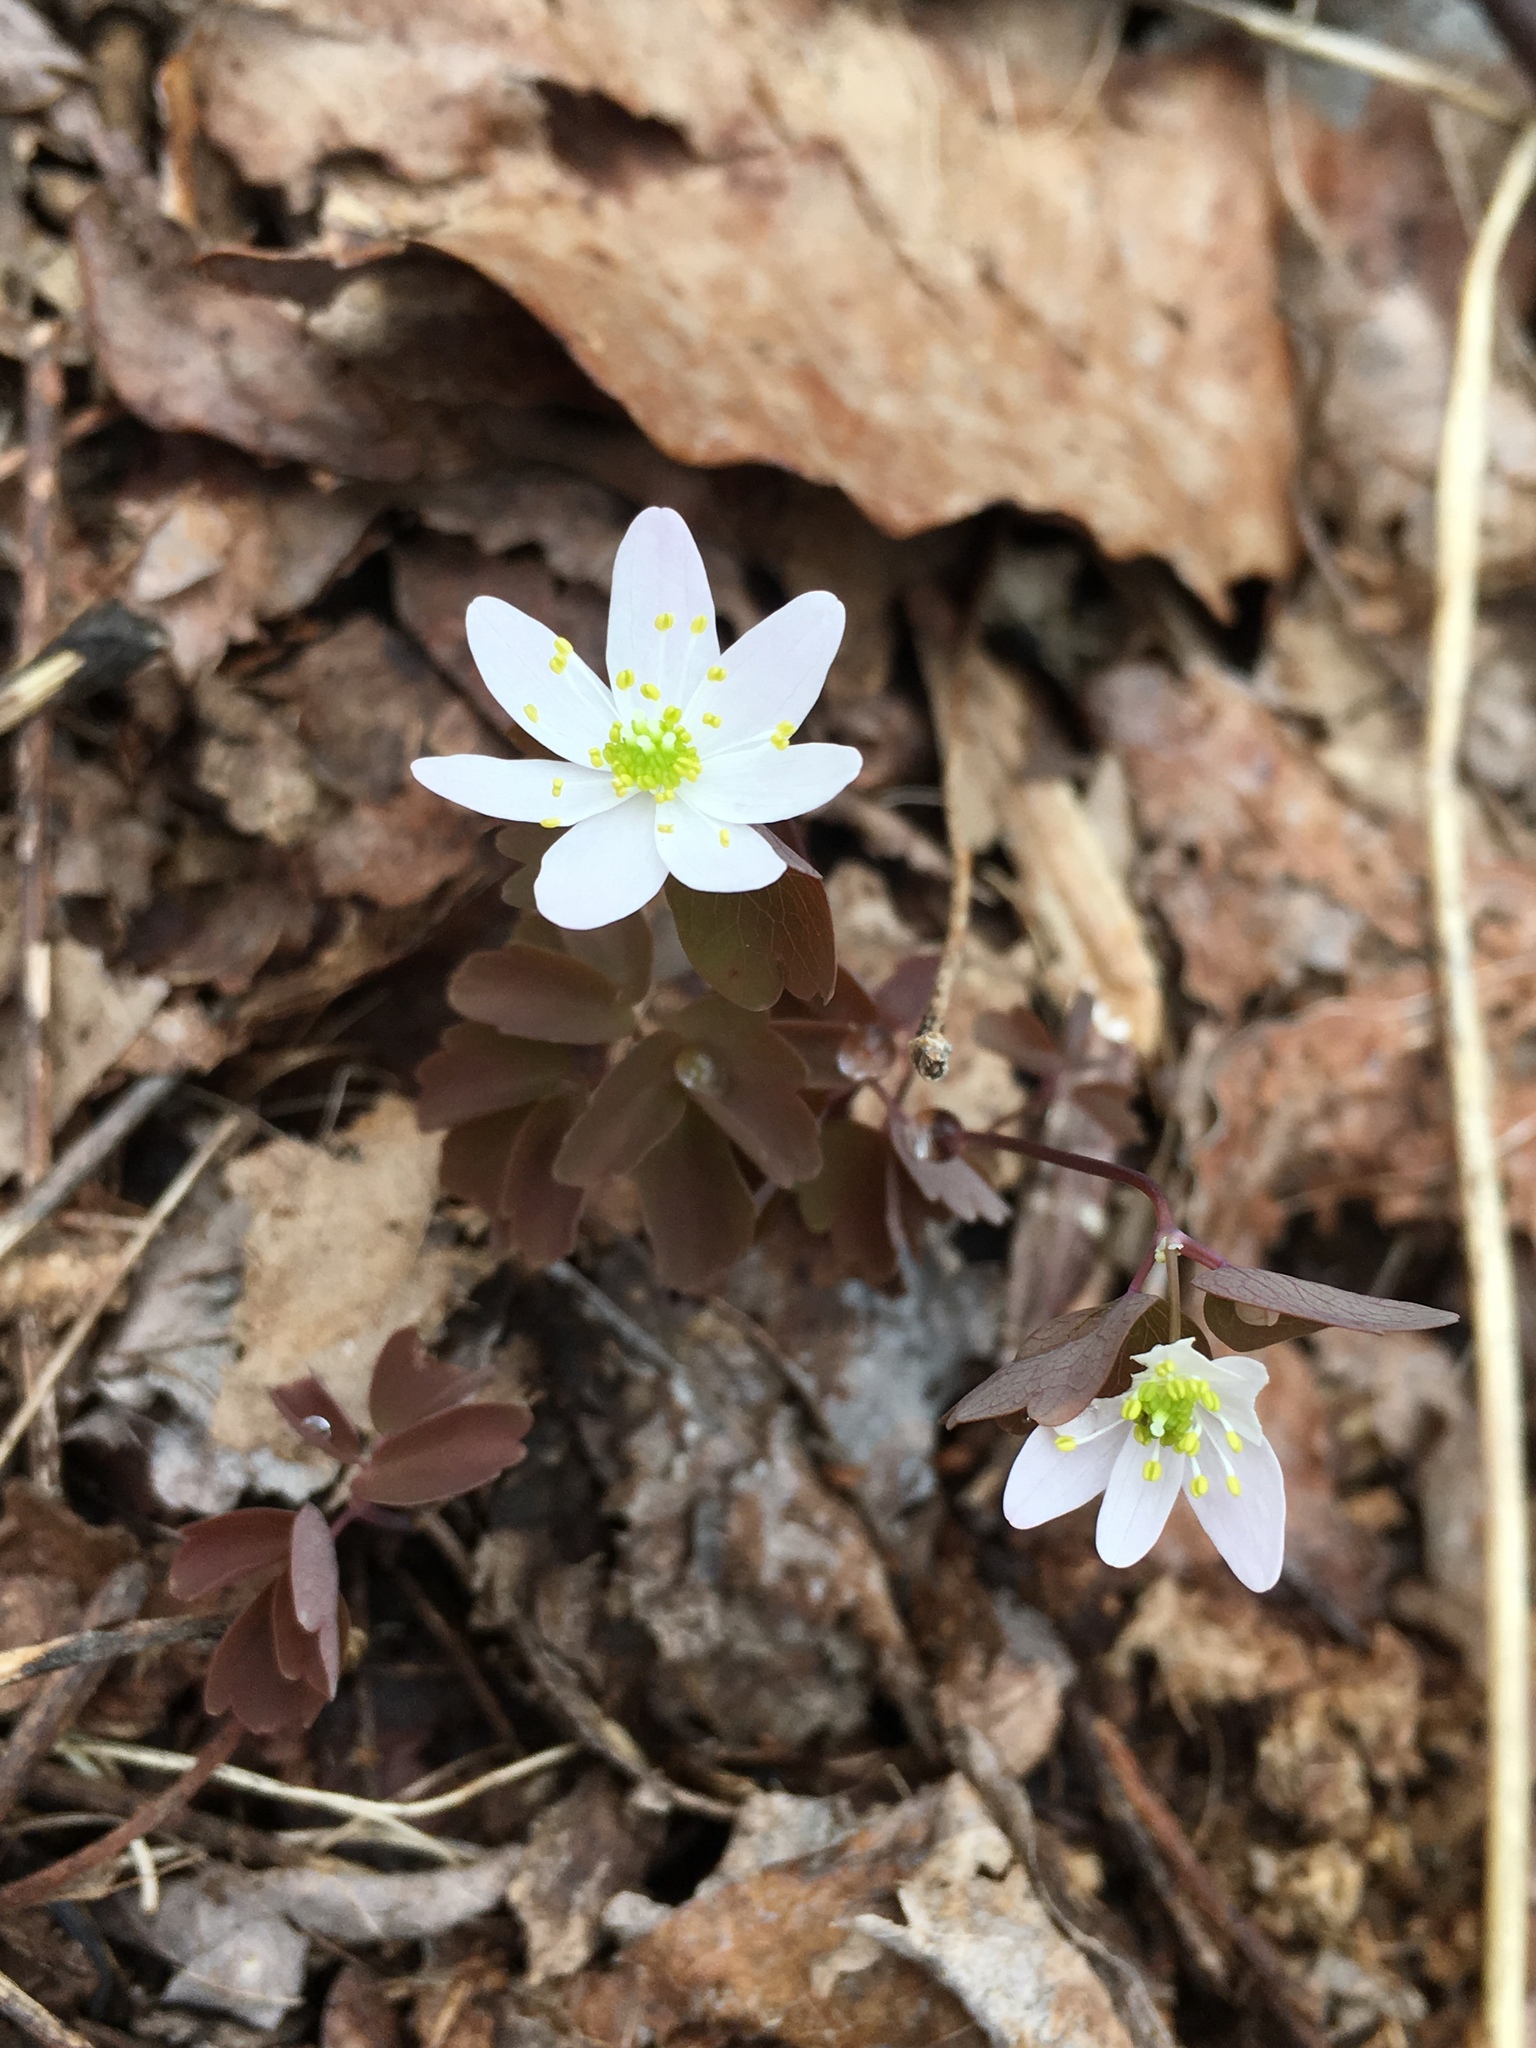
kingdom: Plantae
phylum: Tracheophyta
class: Magnoliopsida
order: Ranunculales
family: Ranunculaceae
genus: Thalictrum
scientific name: Thalictrum thalictroides
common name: Rue-anemone
